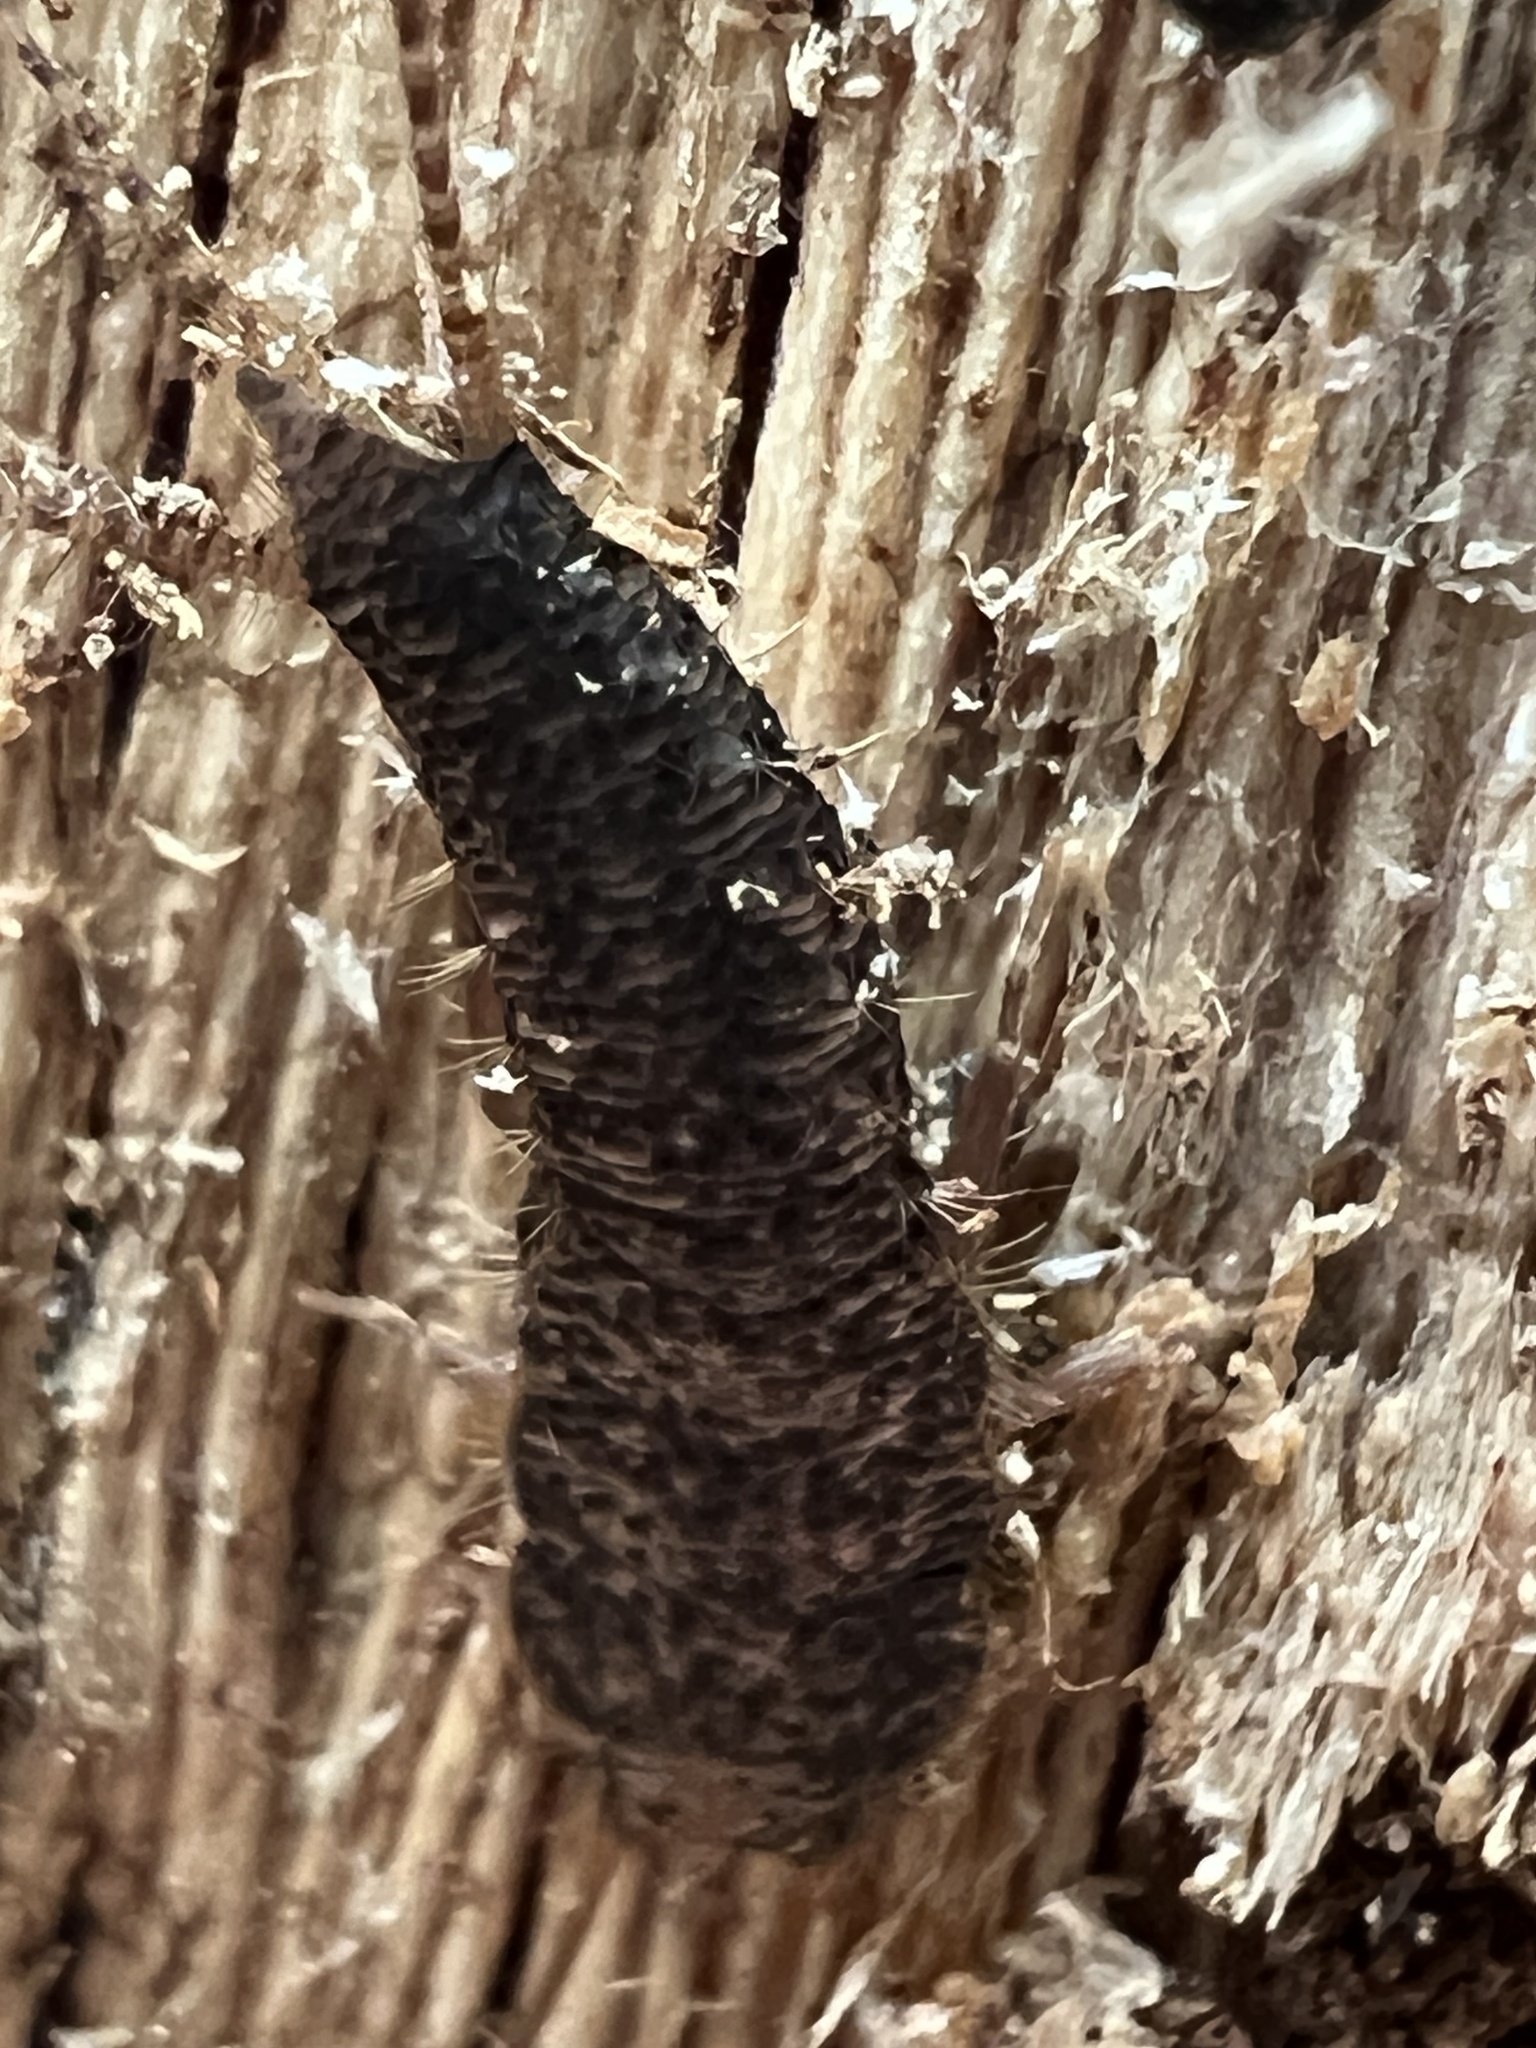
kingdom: Animalia
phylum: Arthropoda
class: Insecta
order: Zygentoma
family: Lepismatidae
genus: Allacrotelsa
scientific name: Allacrotelsa spinulata
